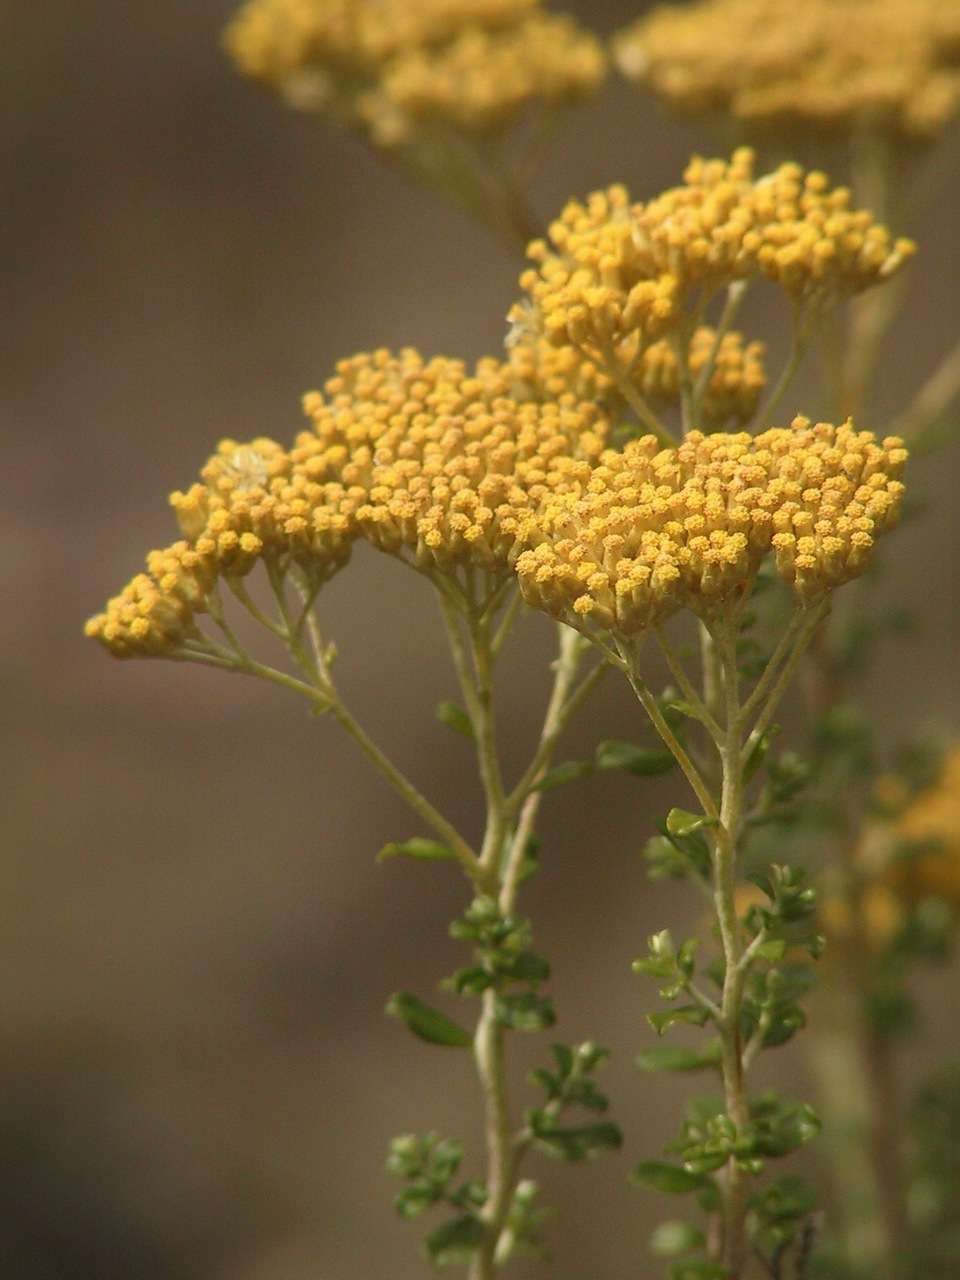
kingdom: Plantae
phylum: Tracheophyta
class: Magnoliopsida
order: Asterales
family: Asteraceae
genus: Ozothamnus
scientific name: Ozothamnus obcordatus
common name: Grey everlasting
